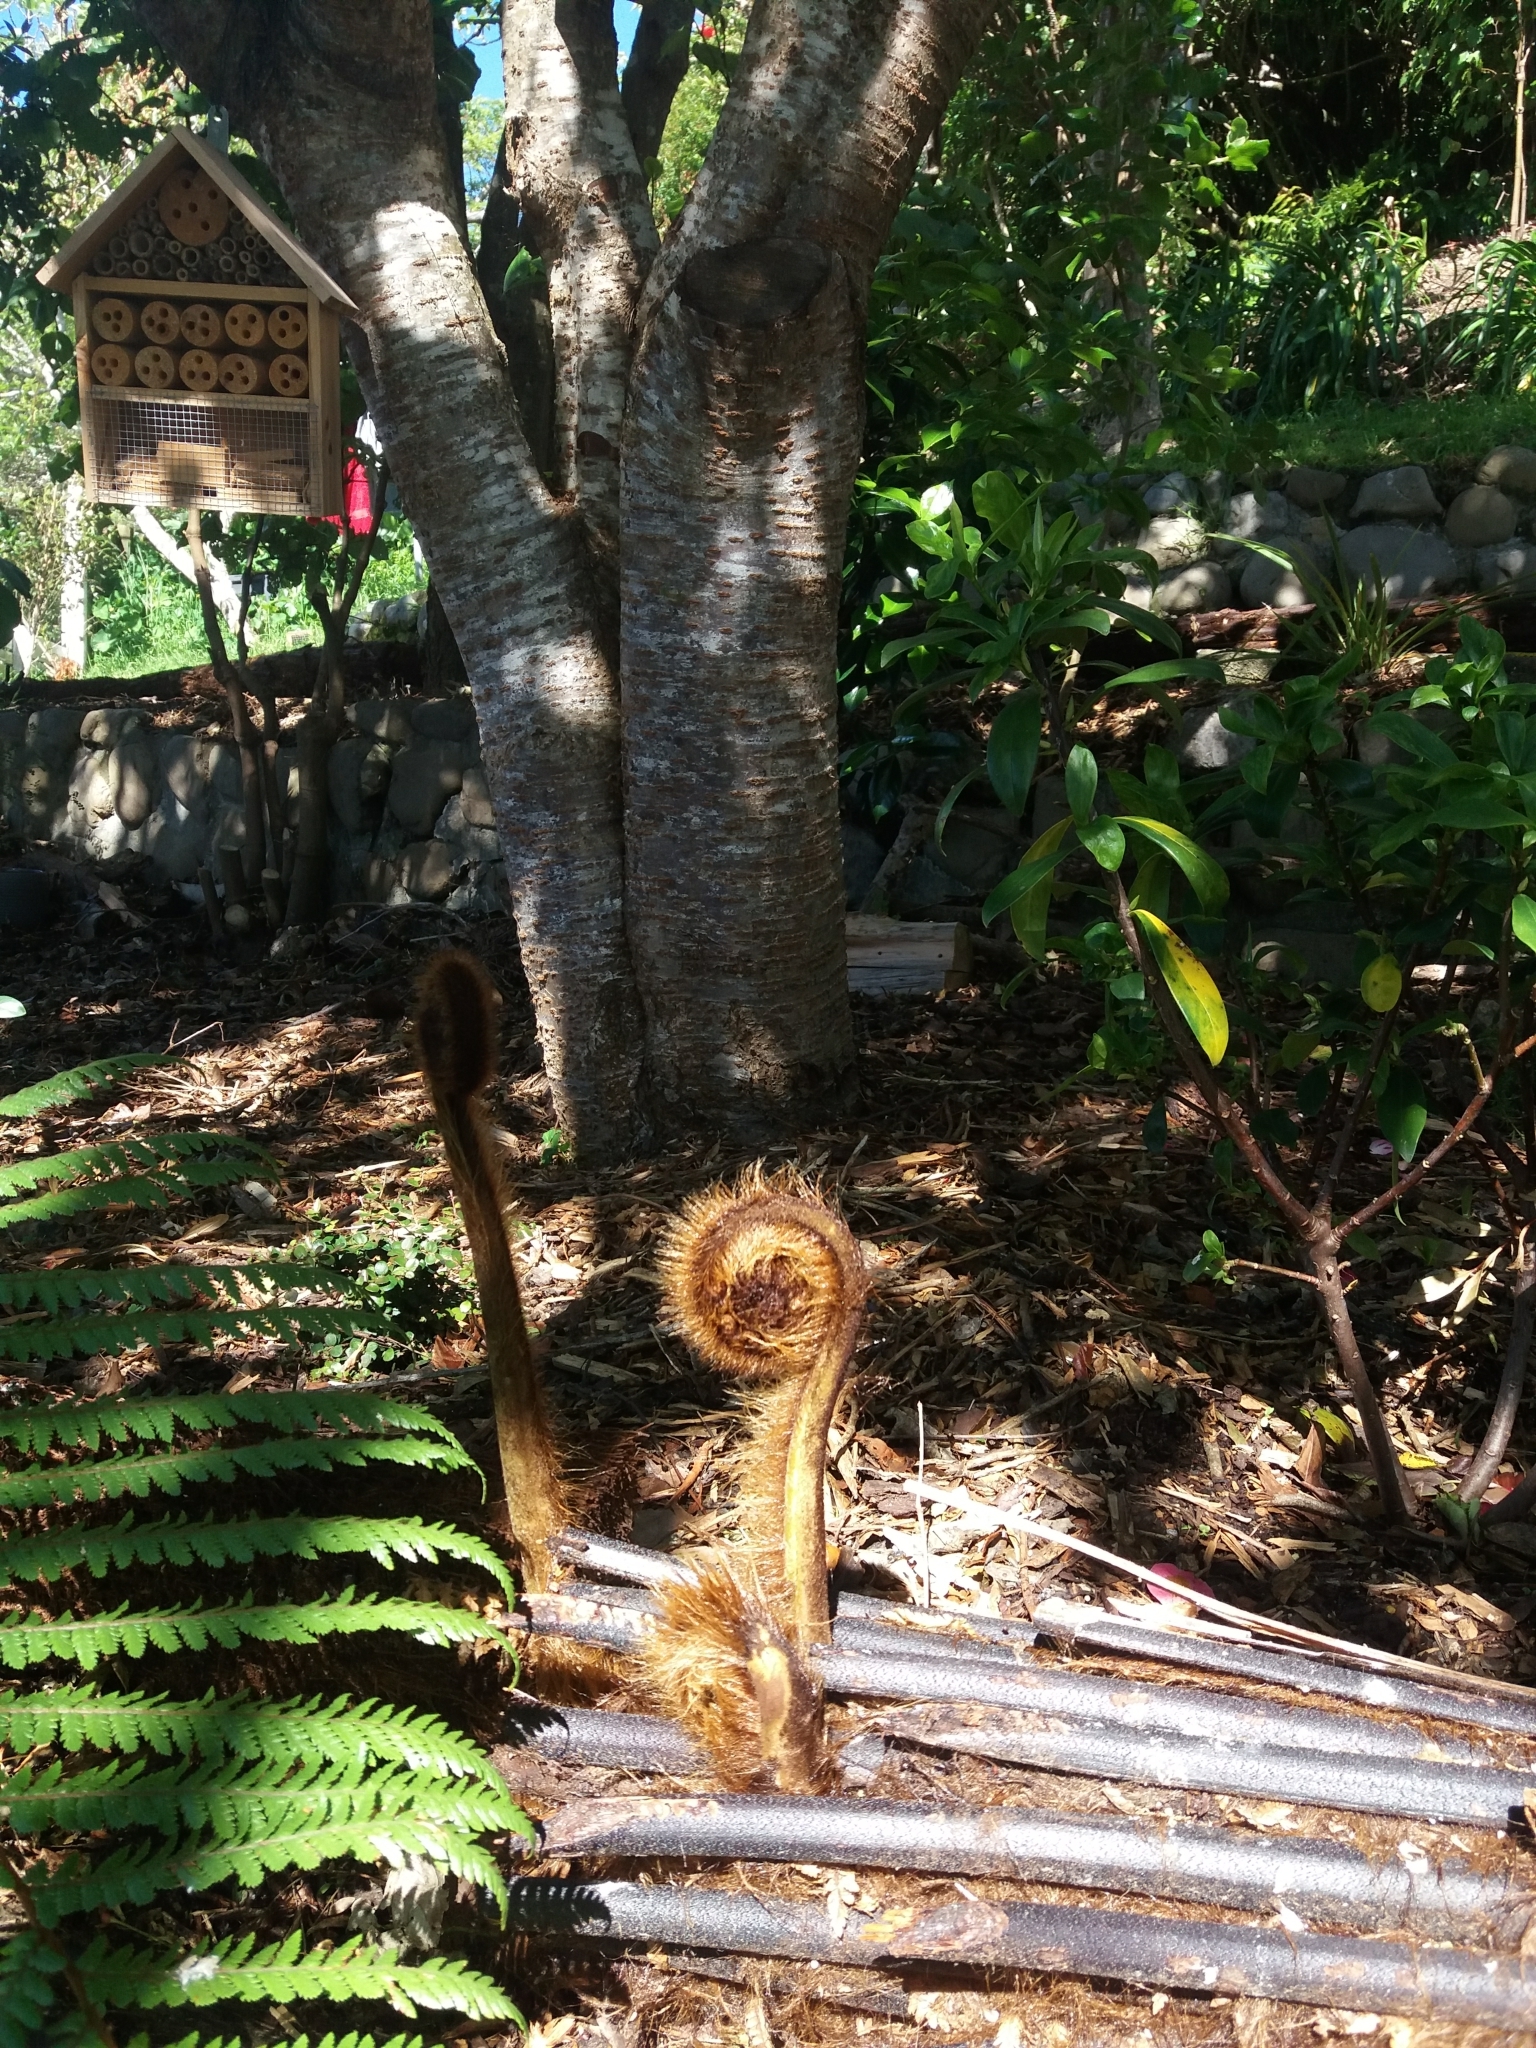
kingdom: Plantae
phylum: Tracheophyta
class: Polypodiopsida
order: Cyatheales
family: Dicksoniaceae
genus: Dicksonia
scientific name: Dicksonia squarrosa
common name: Hard treefern
